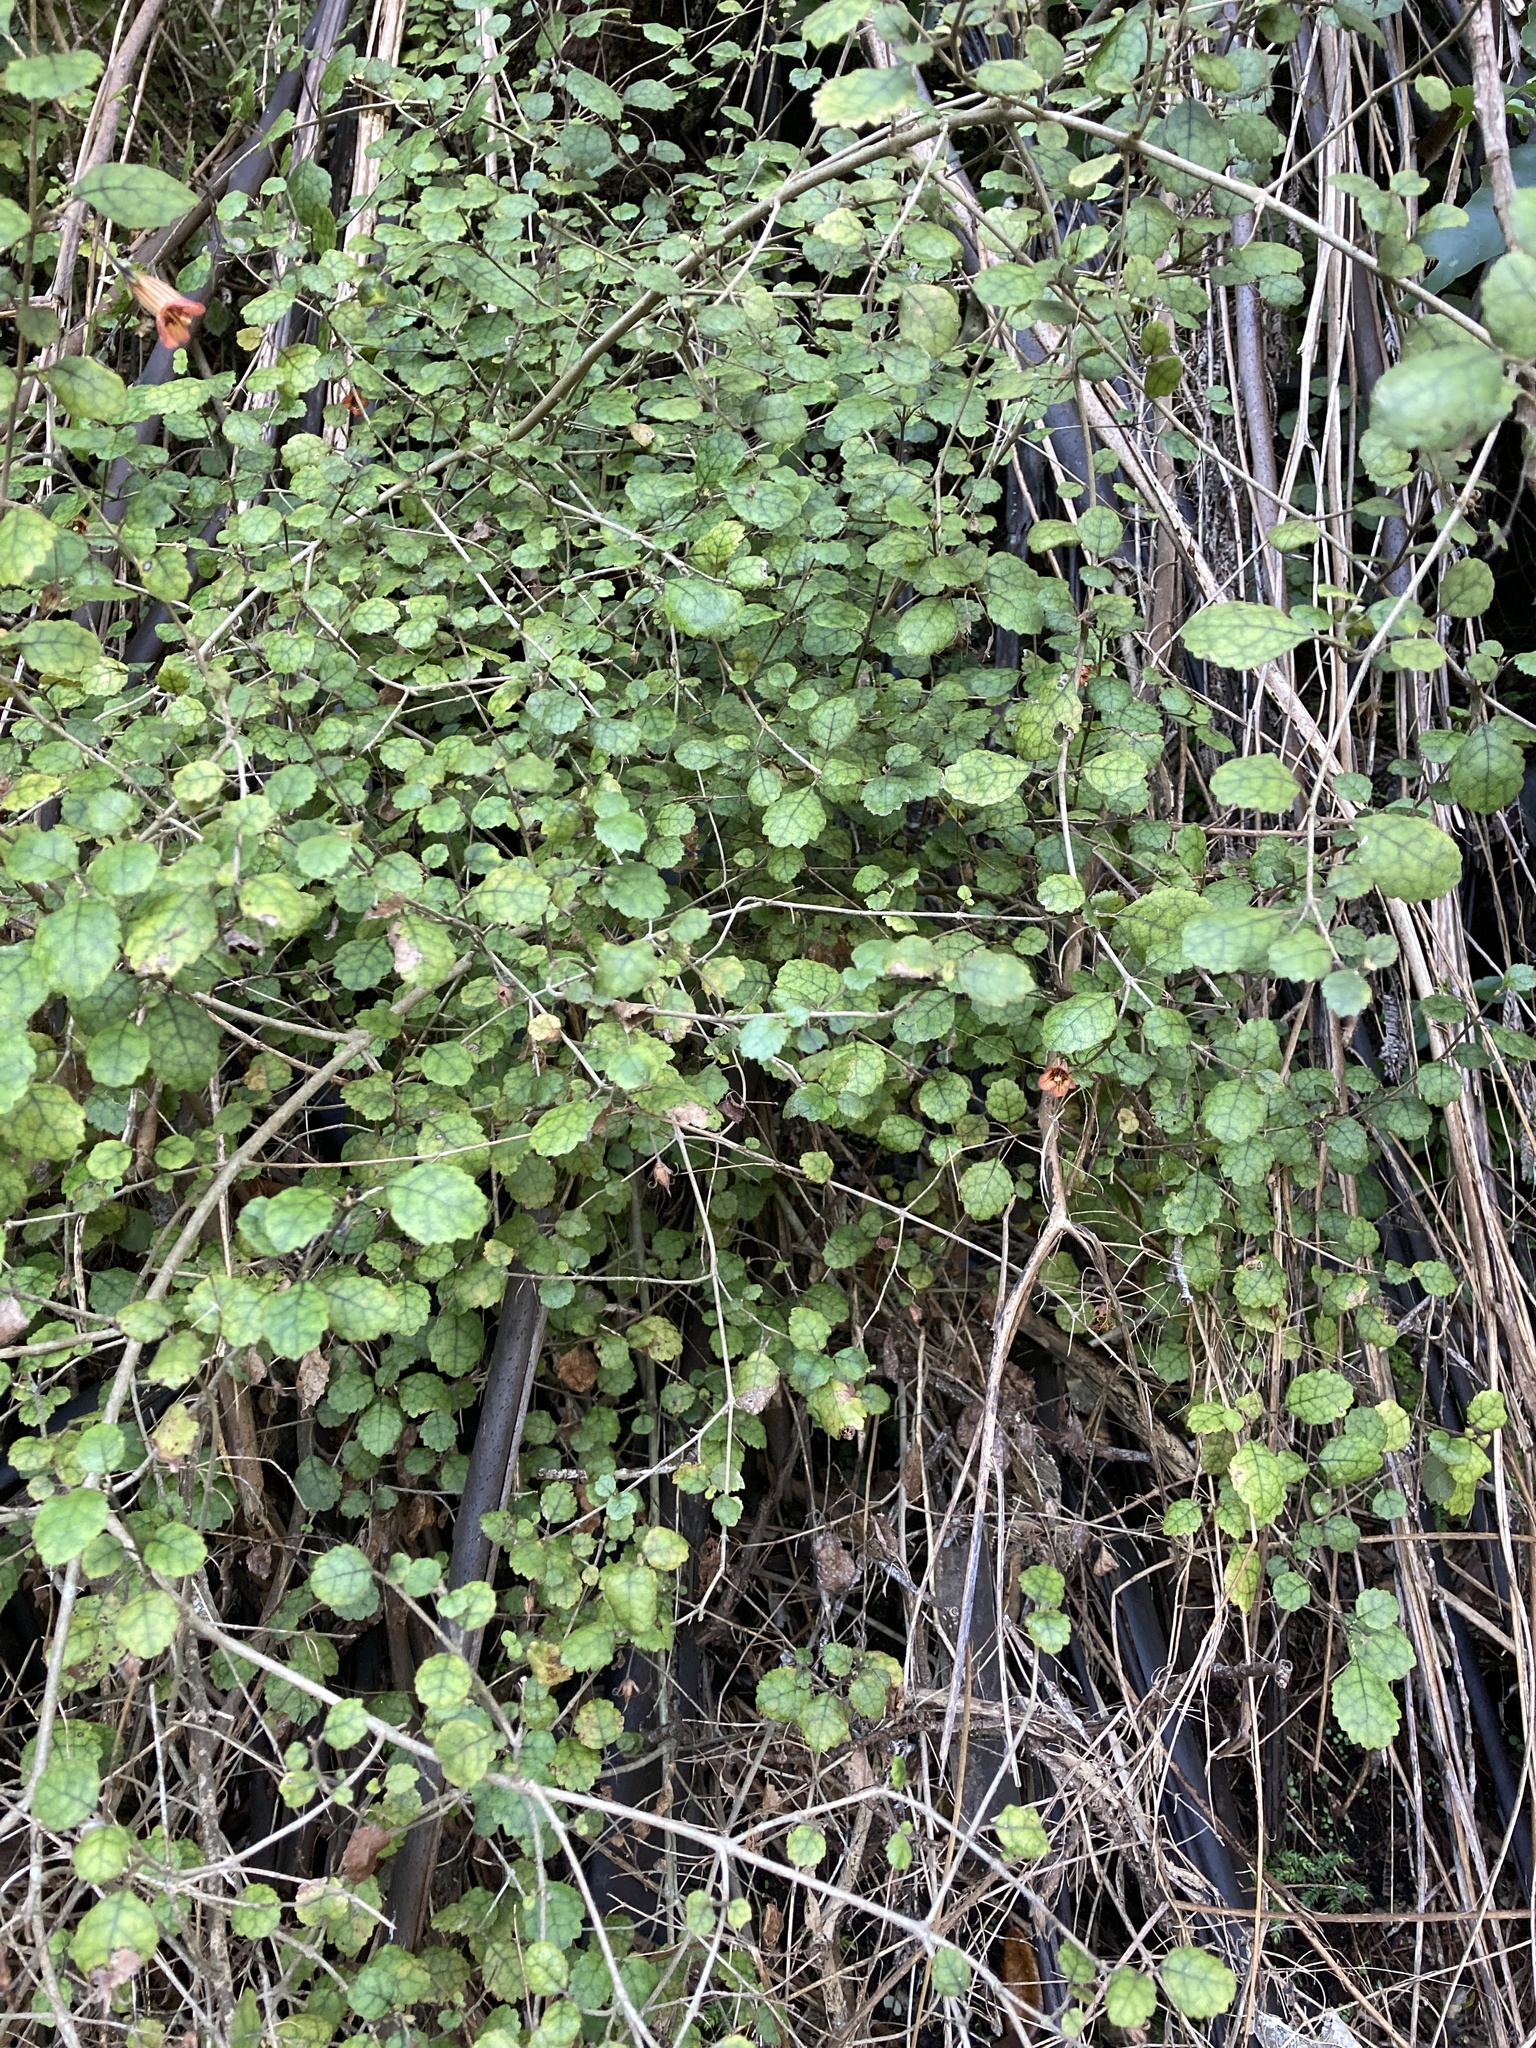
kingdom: Plantae
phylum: Tracheophyta
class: Magnoliopsida
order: Lamiales
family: Gesneriaceae
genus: Rhabdothamnus
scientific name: Rhabdothamnus solandri
